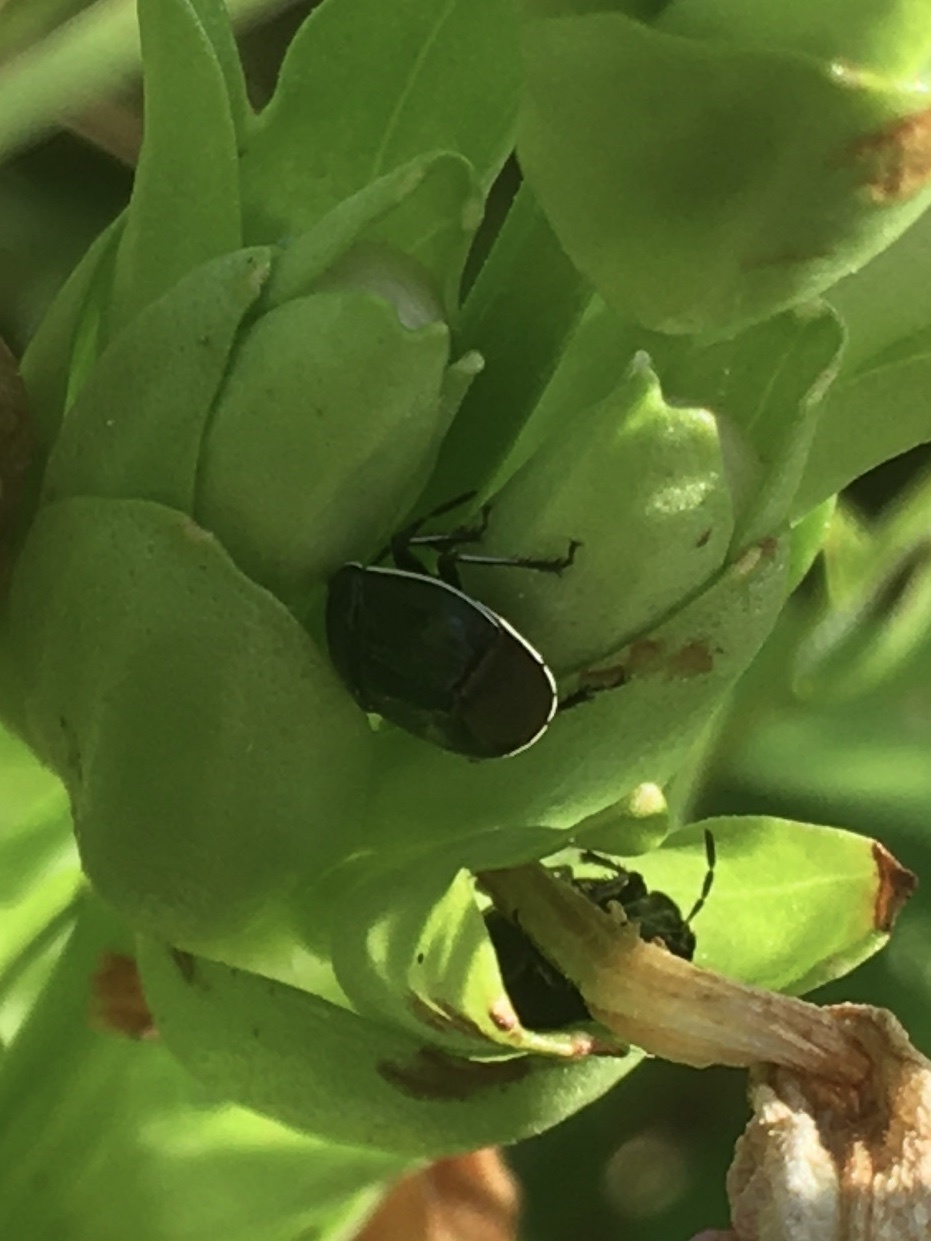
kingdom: Animalia
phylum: Arthropoda
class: Insecta
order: Hemiptera
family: Cydnidae
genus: Sehirus
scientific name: Sehirus cinctus
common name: White-margined burrower bug
